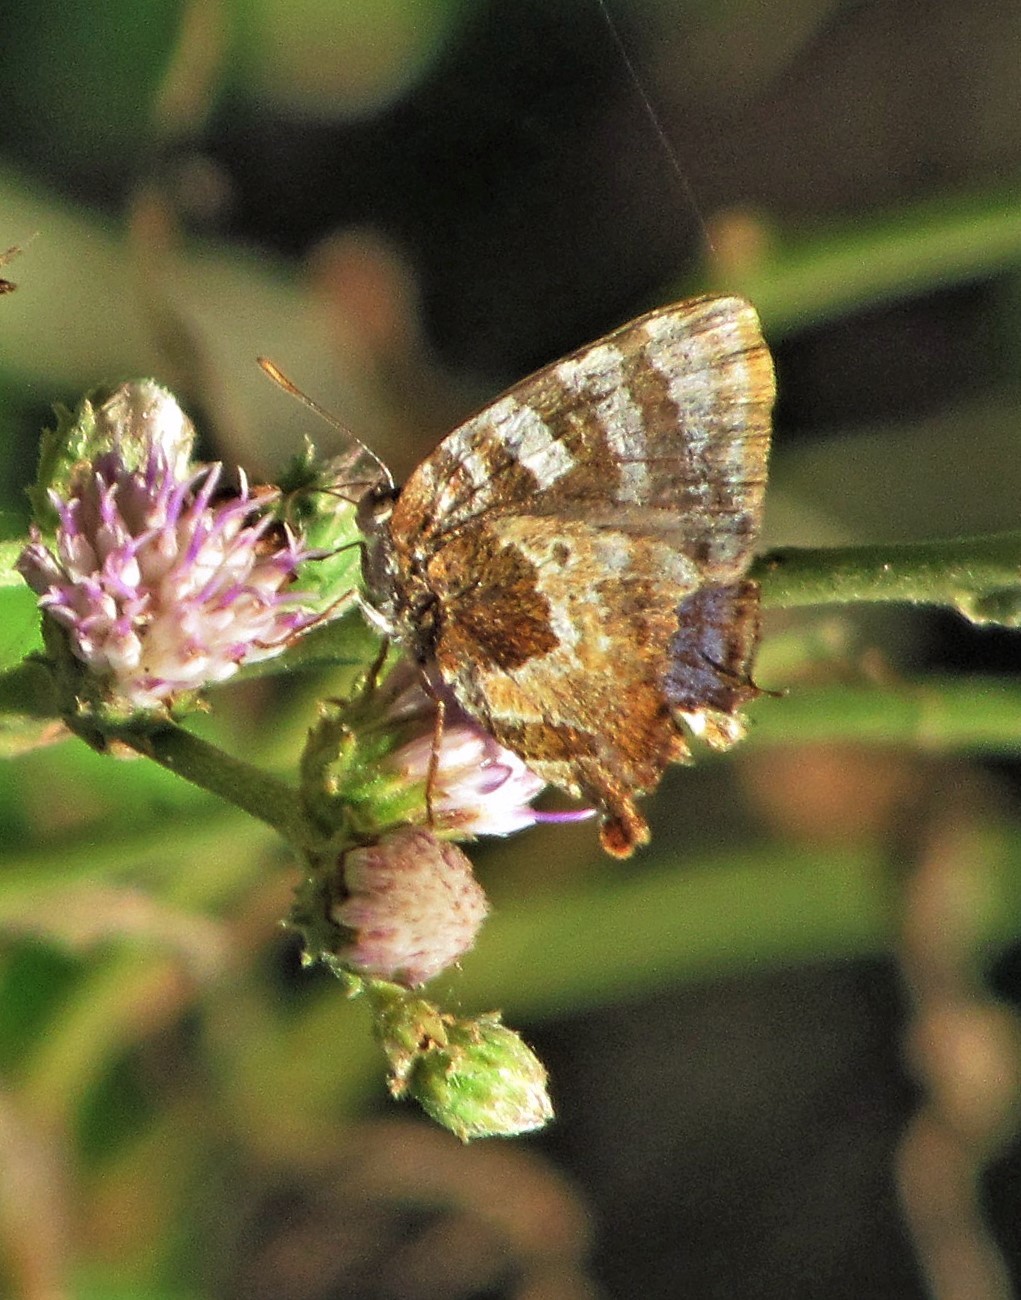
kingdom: Animalia
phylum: Arthropoda
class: Insecta
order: Lepidoptera
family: Lycaenidae
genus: Arawacus
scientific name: Arawacus ellida
